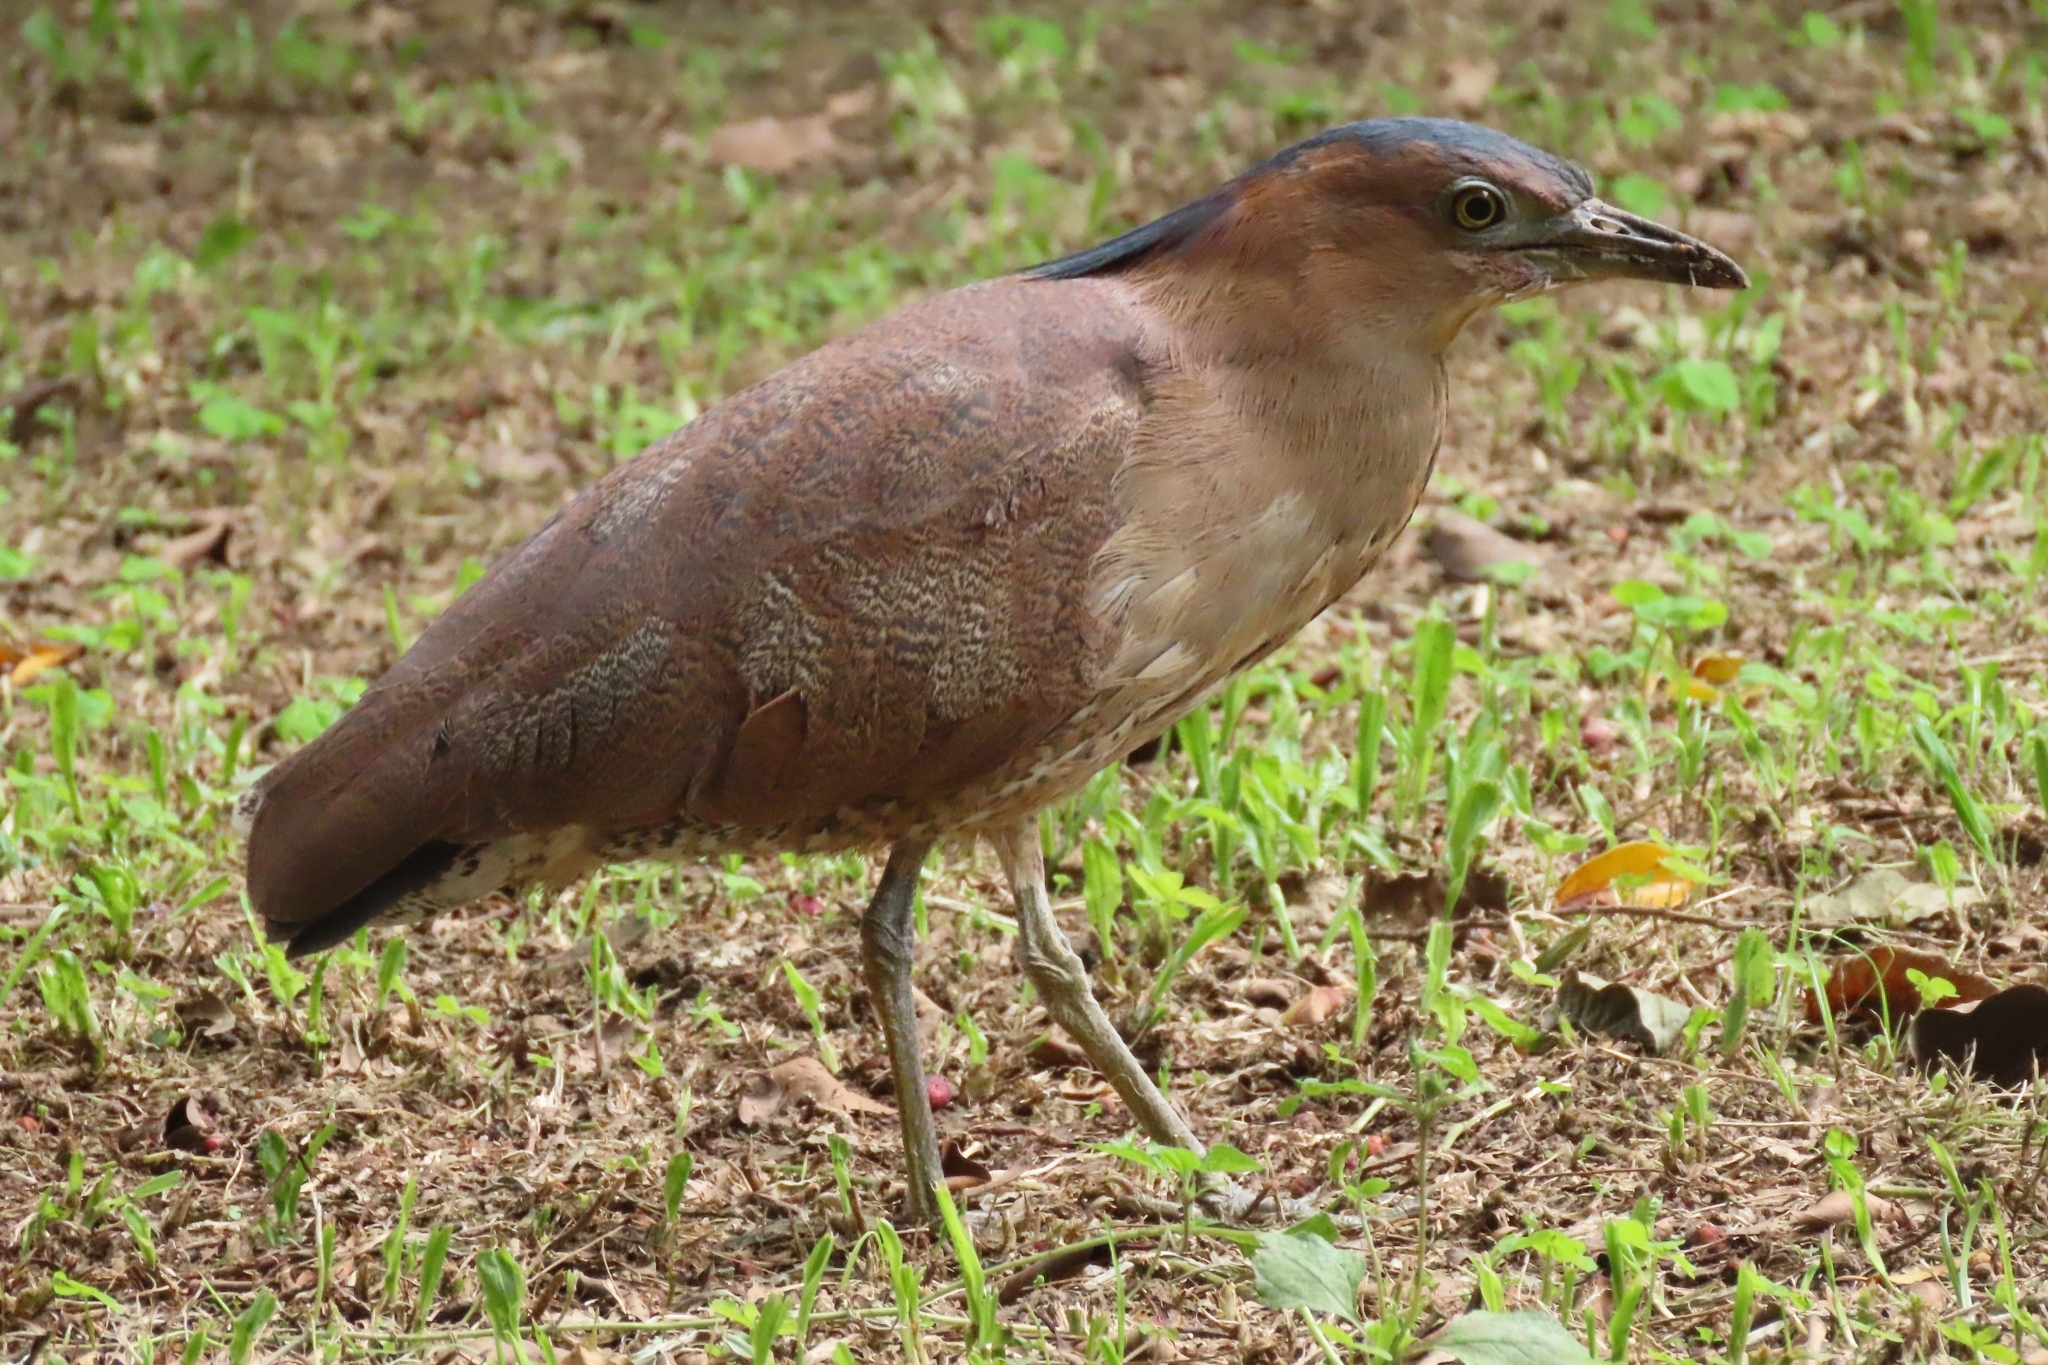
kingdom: Animalia
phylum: Chordata
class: Aves
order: Pelecaniformes
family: Ardeidae
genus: Gorsachius
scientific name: Gorsachius melanolophus
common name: Malayan night heron
